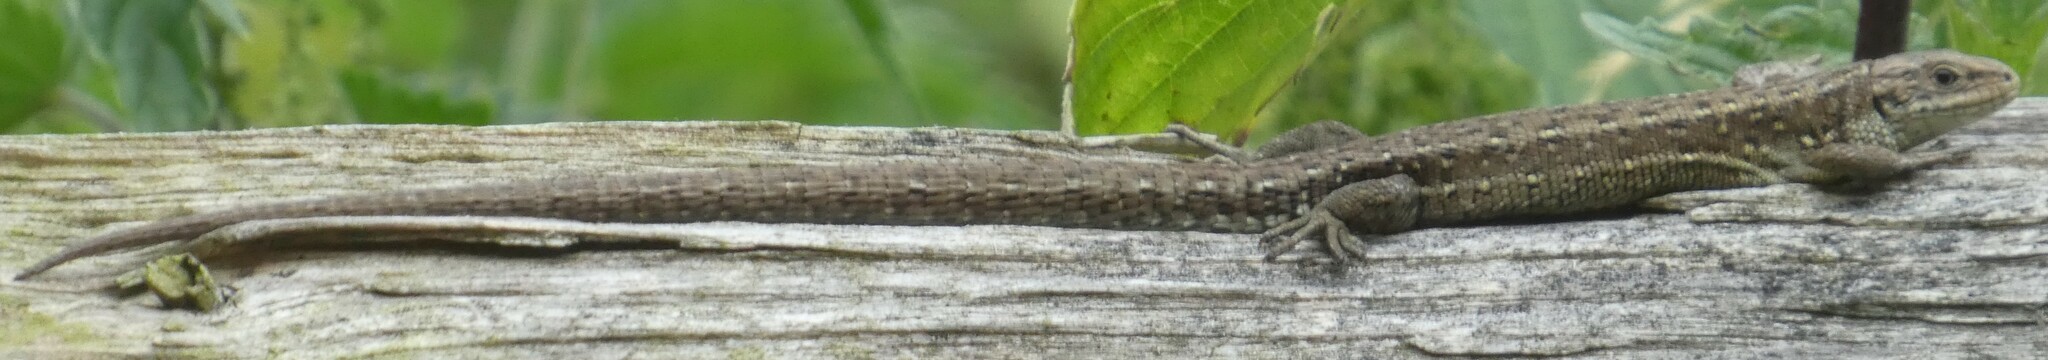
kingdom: Animalia
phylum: Chordata
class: Squamata
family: Lacertidae
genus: Zootoca
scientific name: Zootoca vivipara
